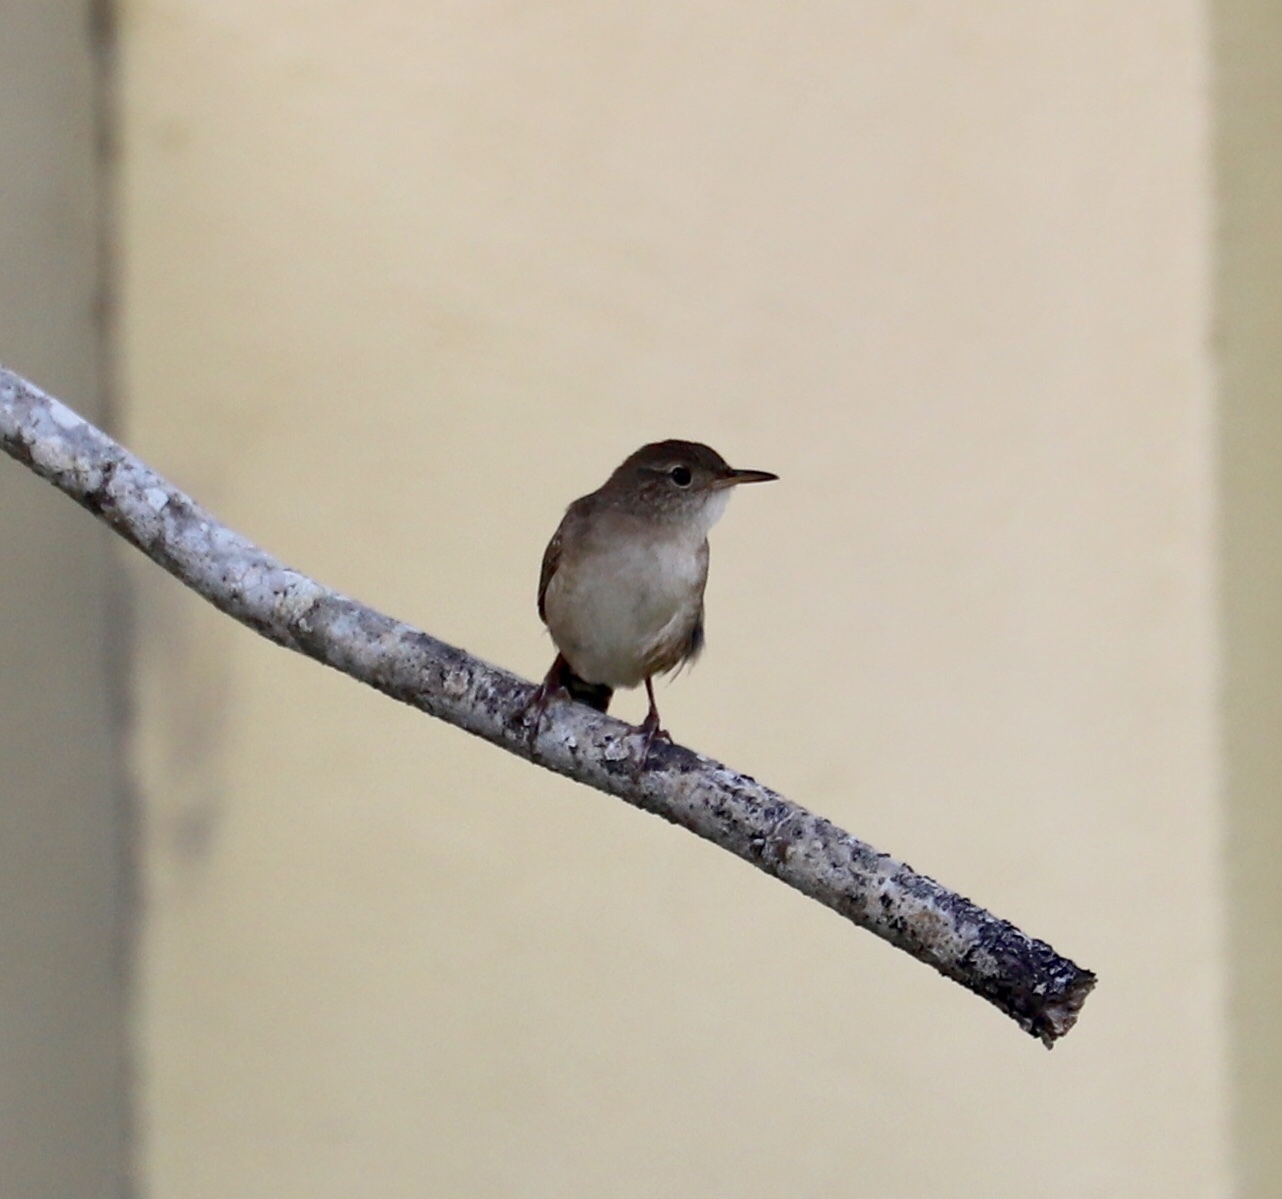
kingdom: Animalia
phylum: Chordata
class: Aves
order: Passeriformes
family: Troglodytidae
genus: Troglodytes
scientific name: Troglodytes aedon
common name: House wren
